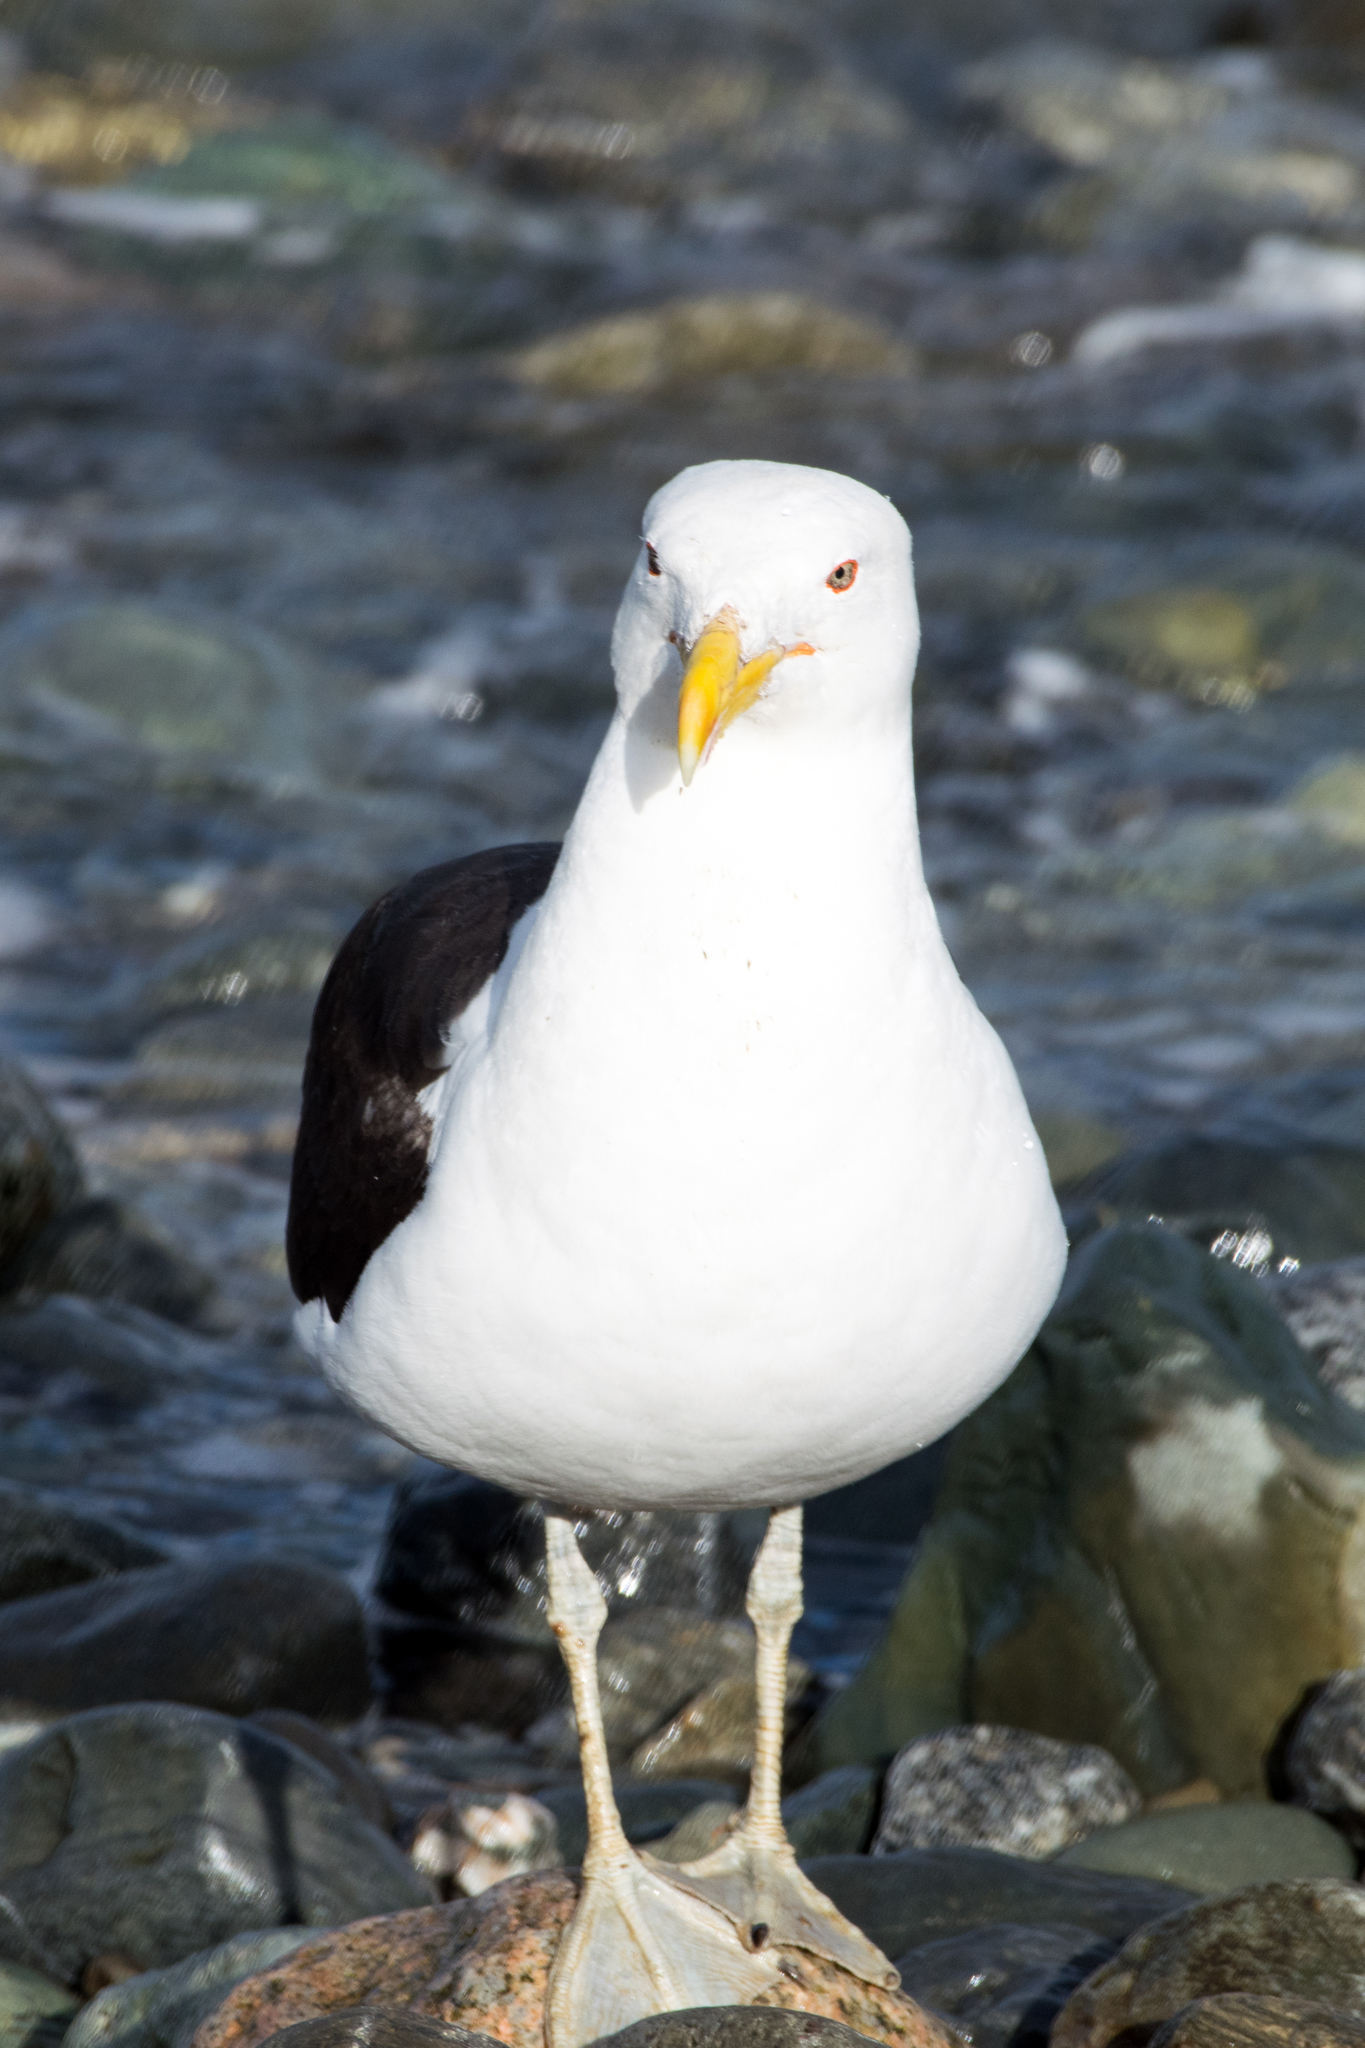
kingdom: Animalia
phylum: Chordata
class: Aves
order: Charadriiformes
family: Laridae
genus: Larus
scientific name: Larus dominicanus
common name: Kelp gull
